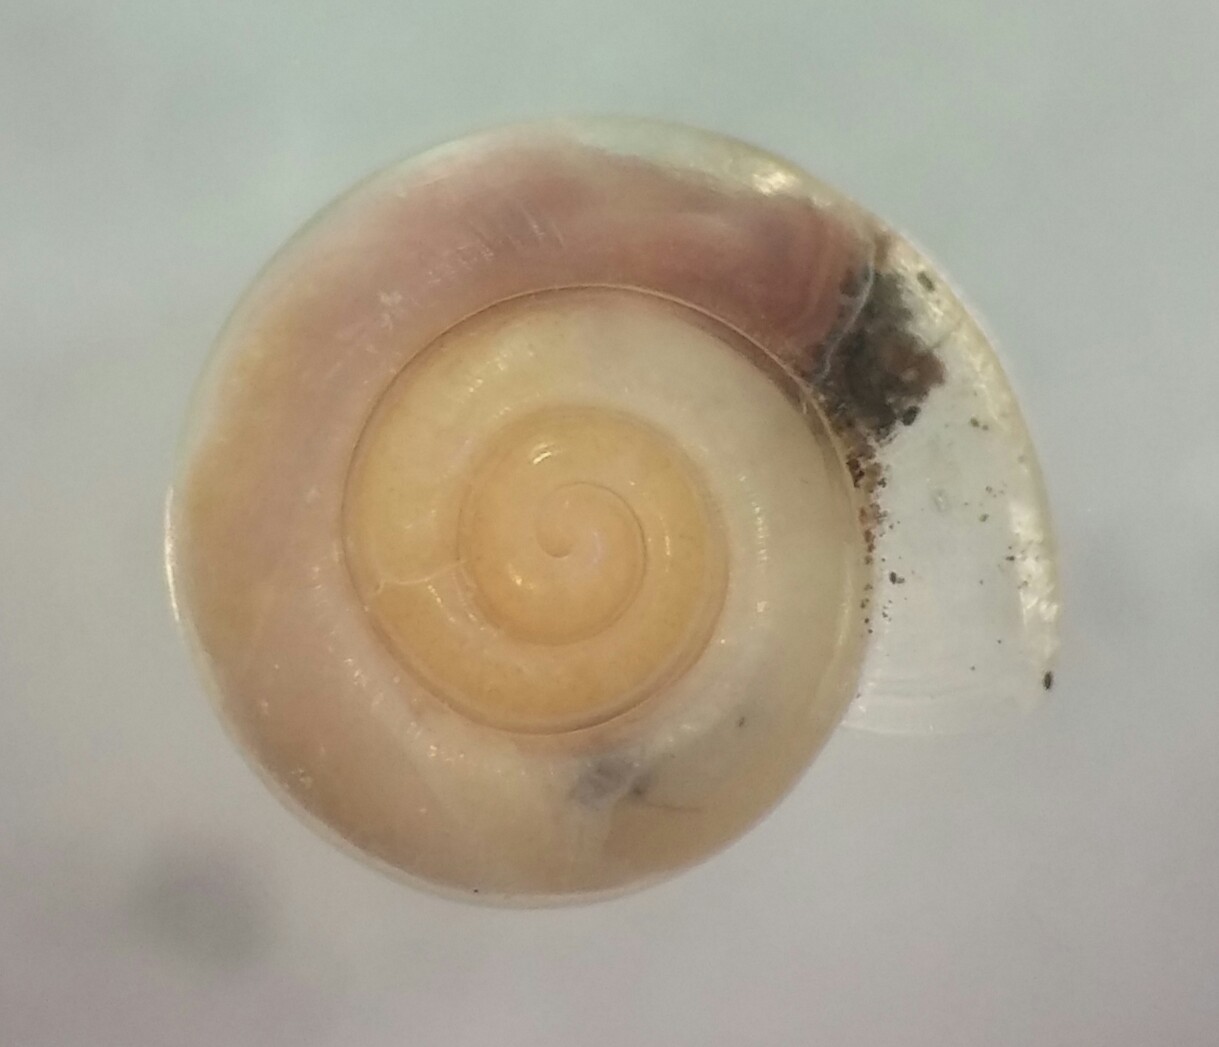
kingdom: Animalia
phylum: Mollusca
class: Gastropoda
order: Stylommatophora
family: Pristilomatidae
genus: Pristiloma
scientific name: Pristiloma orotis
